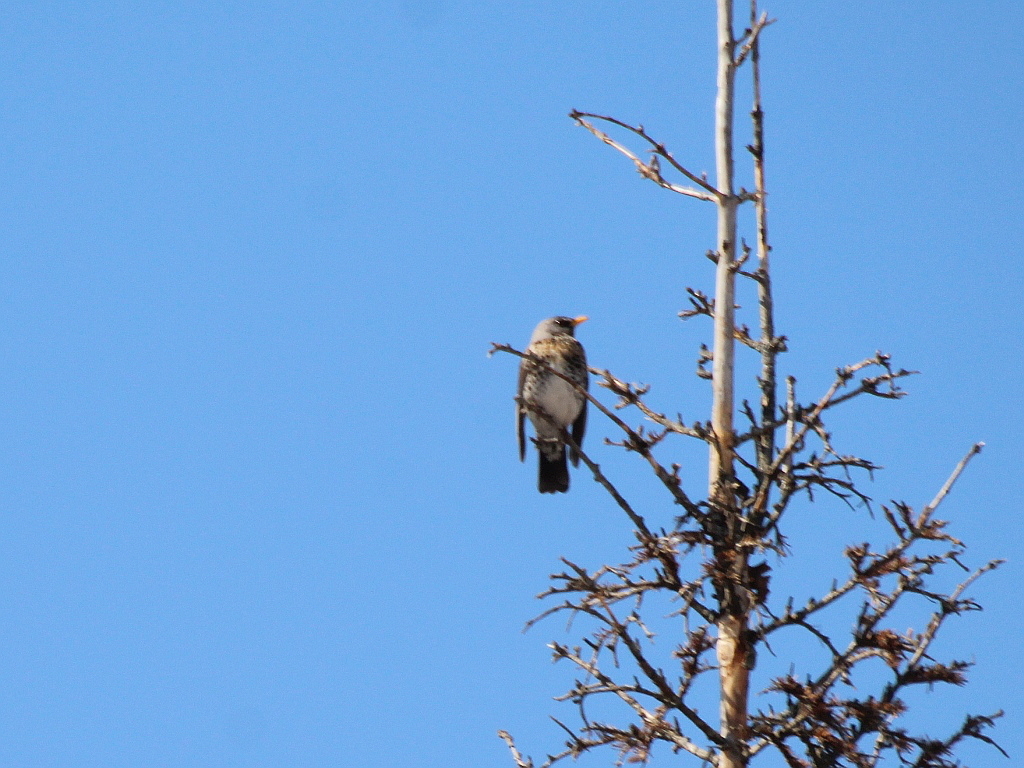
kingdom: Animalia
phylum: Chordata
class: Aves
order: Passeriformes
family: Turdidae
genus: Turdus
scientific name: Turdus pilaris
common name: Fieldfare
